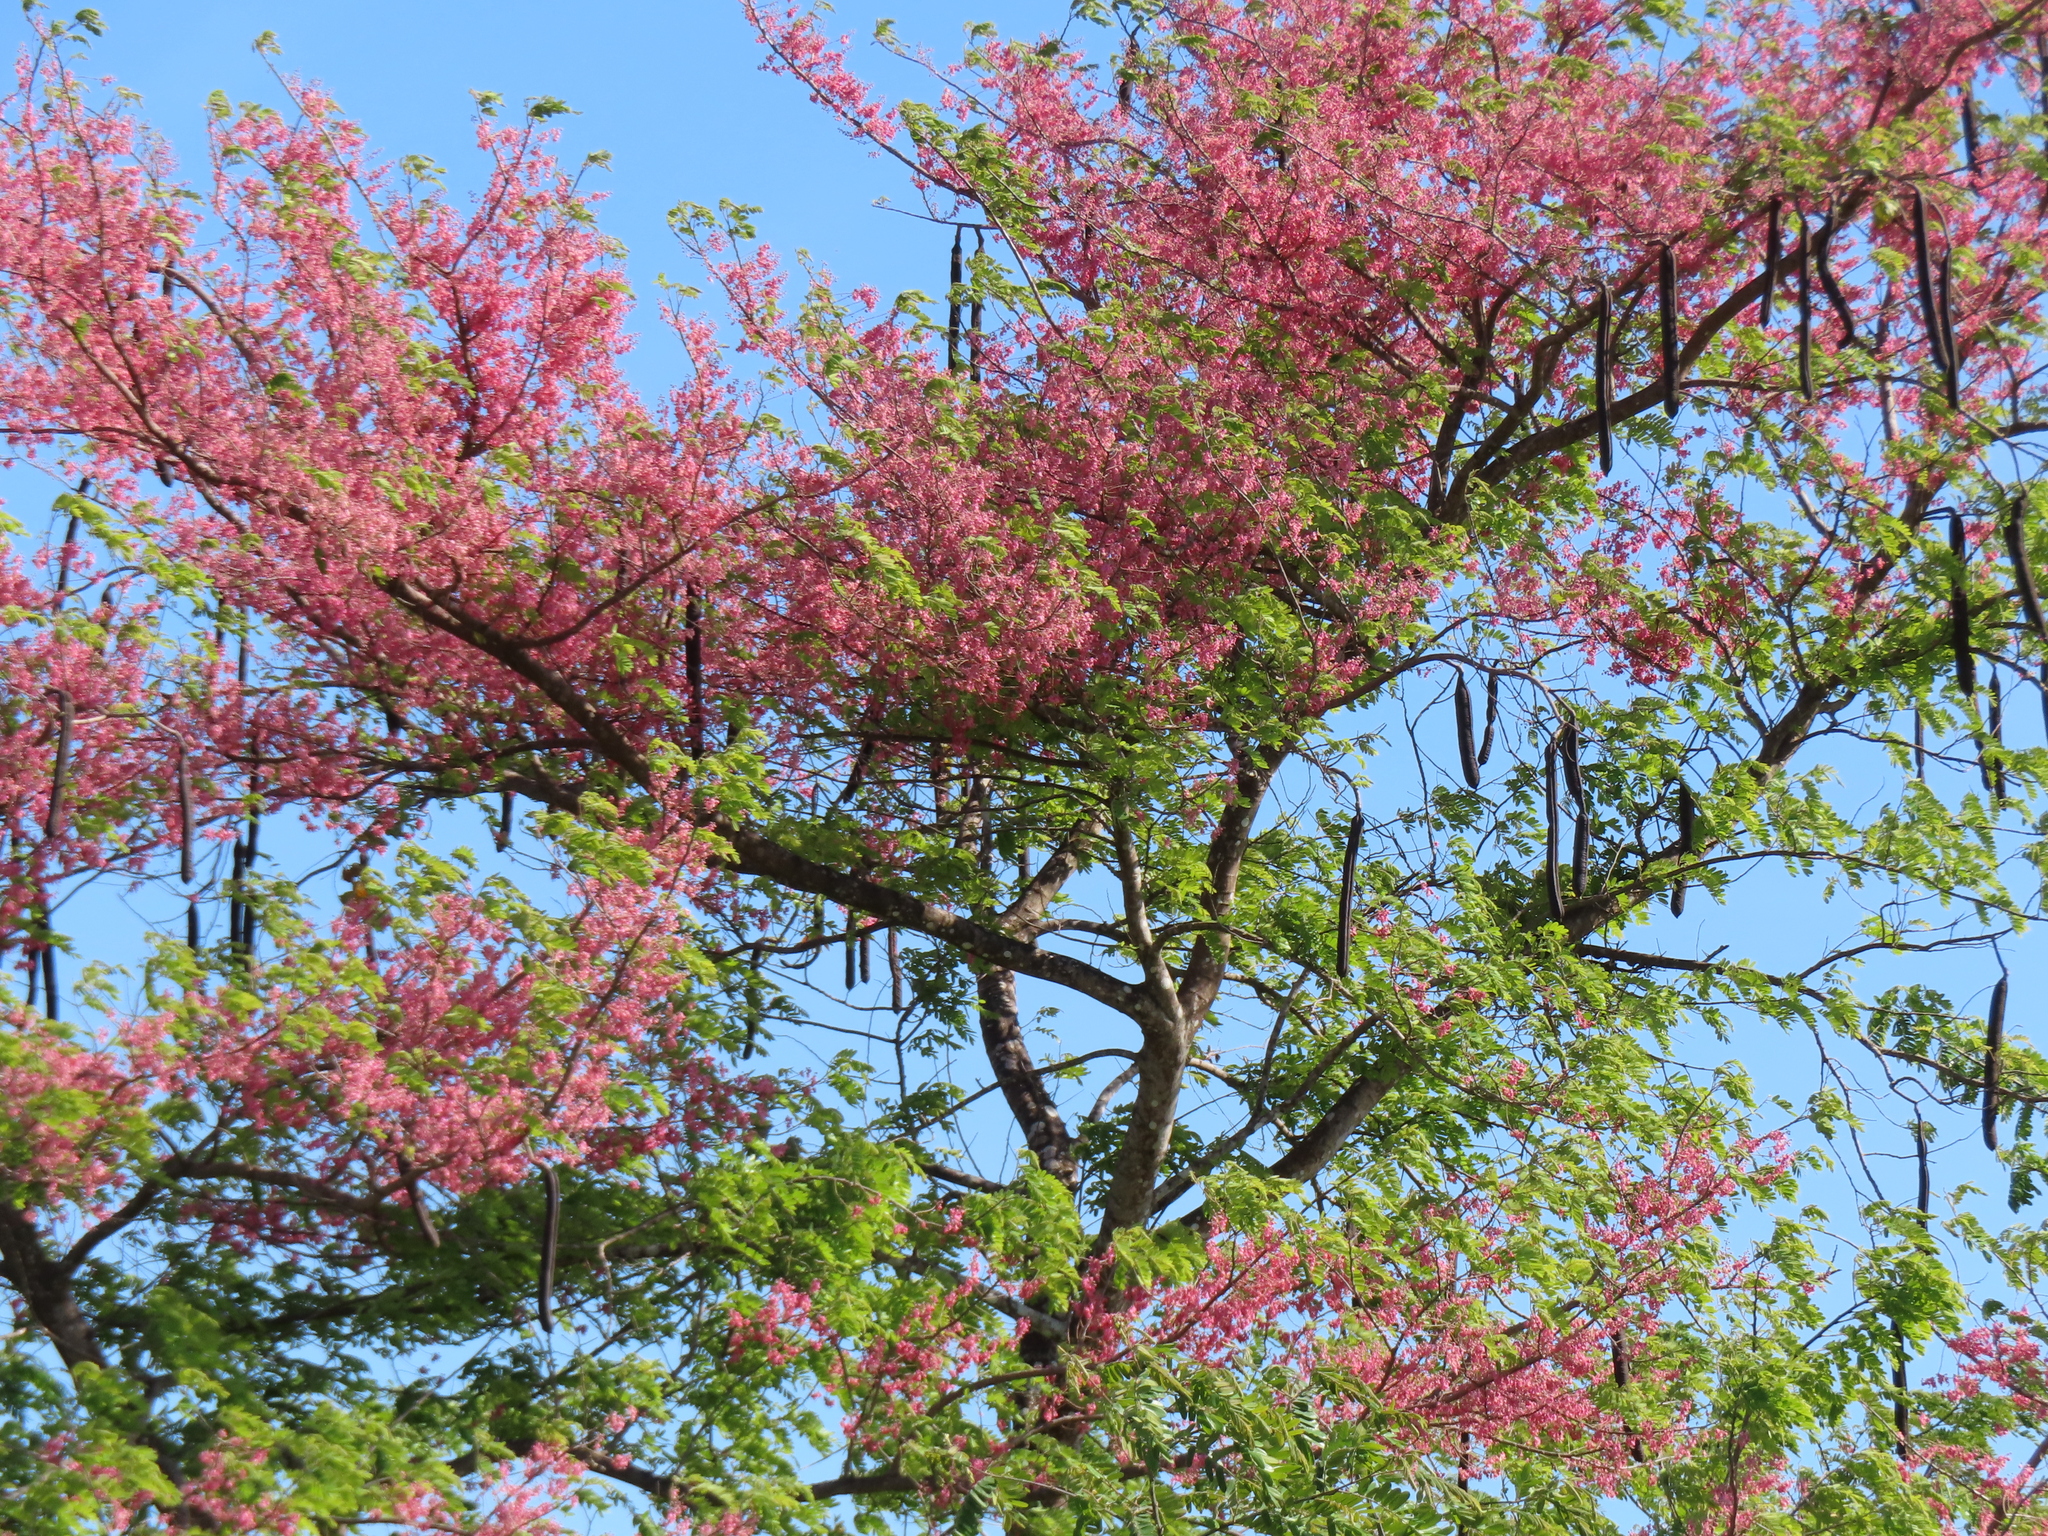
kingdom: Plantae
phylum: Tracheophyta
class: Magnoliopsida
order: Fabales
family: Fabaceae
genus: Cassia
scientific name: Cassia grandis
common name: Appleblossom cassia
